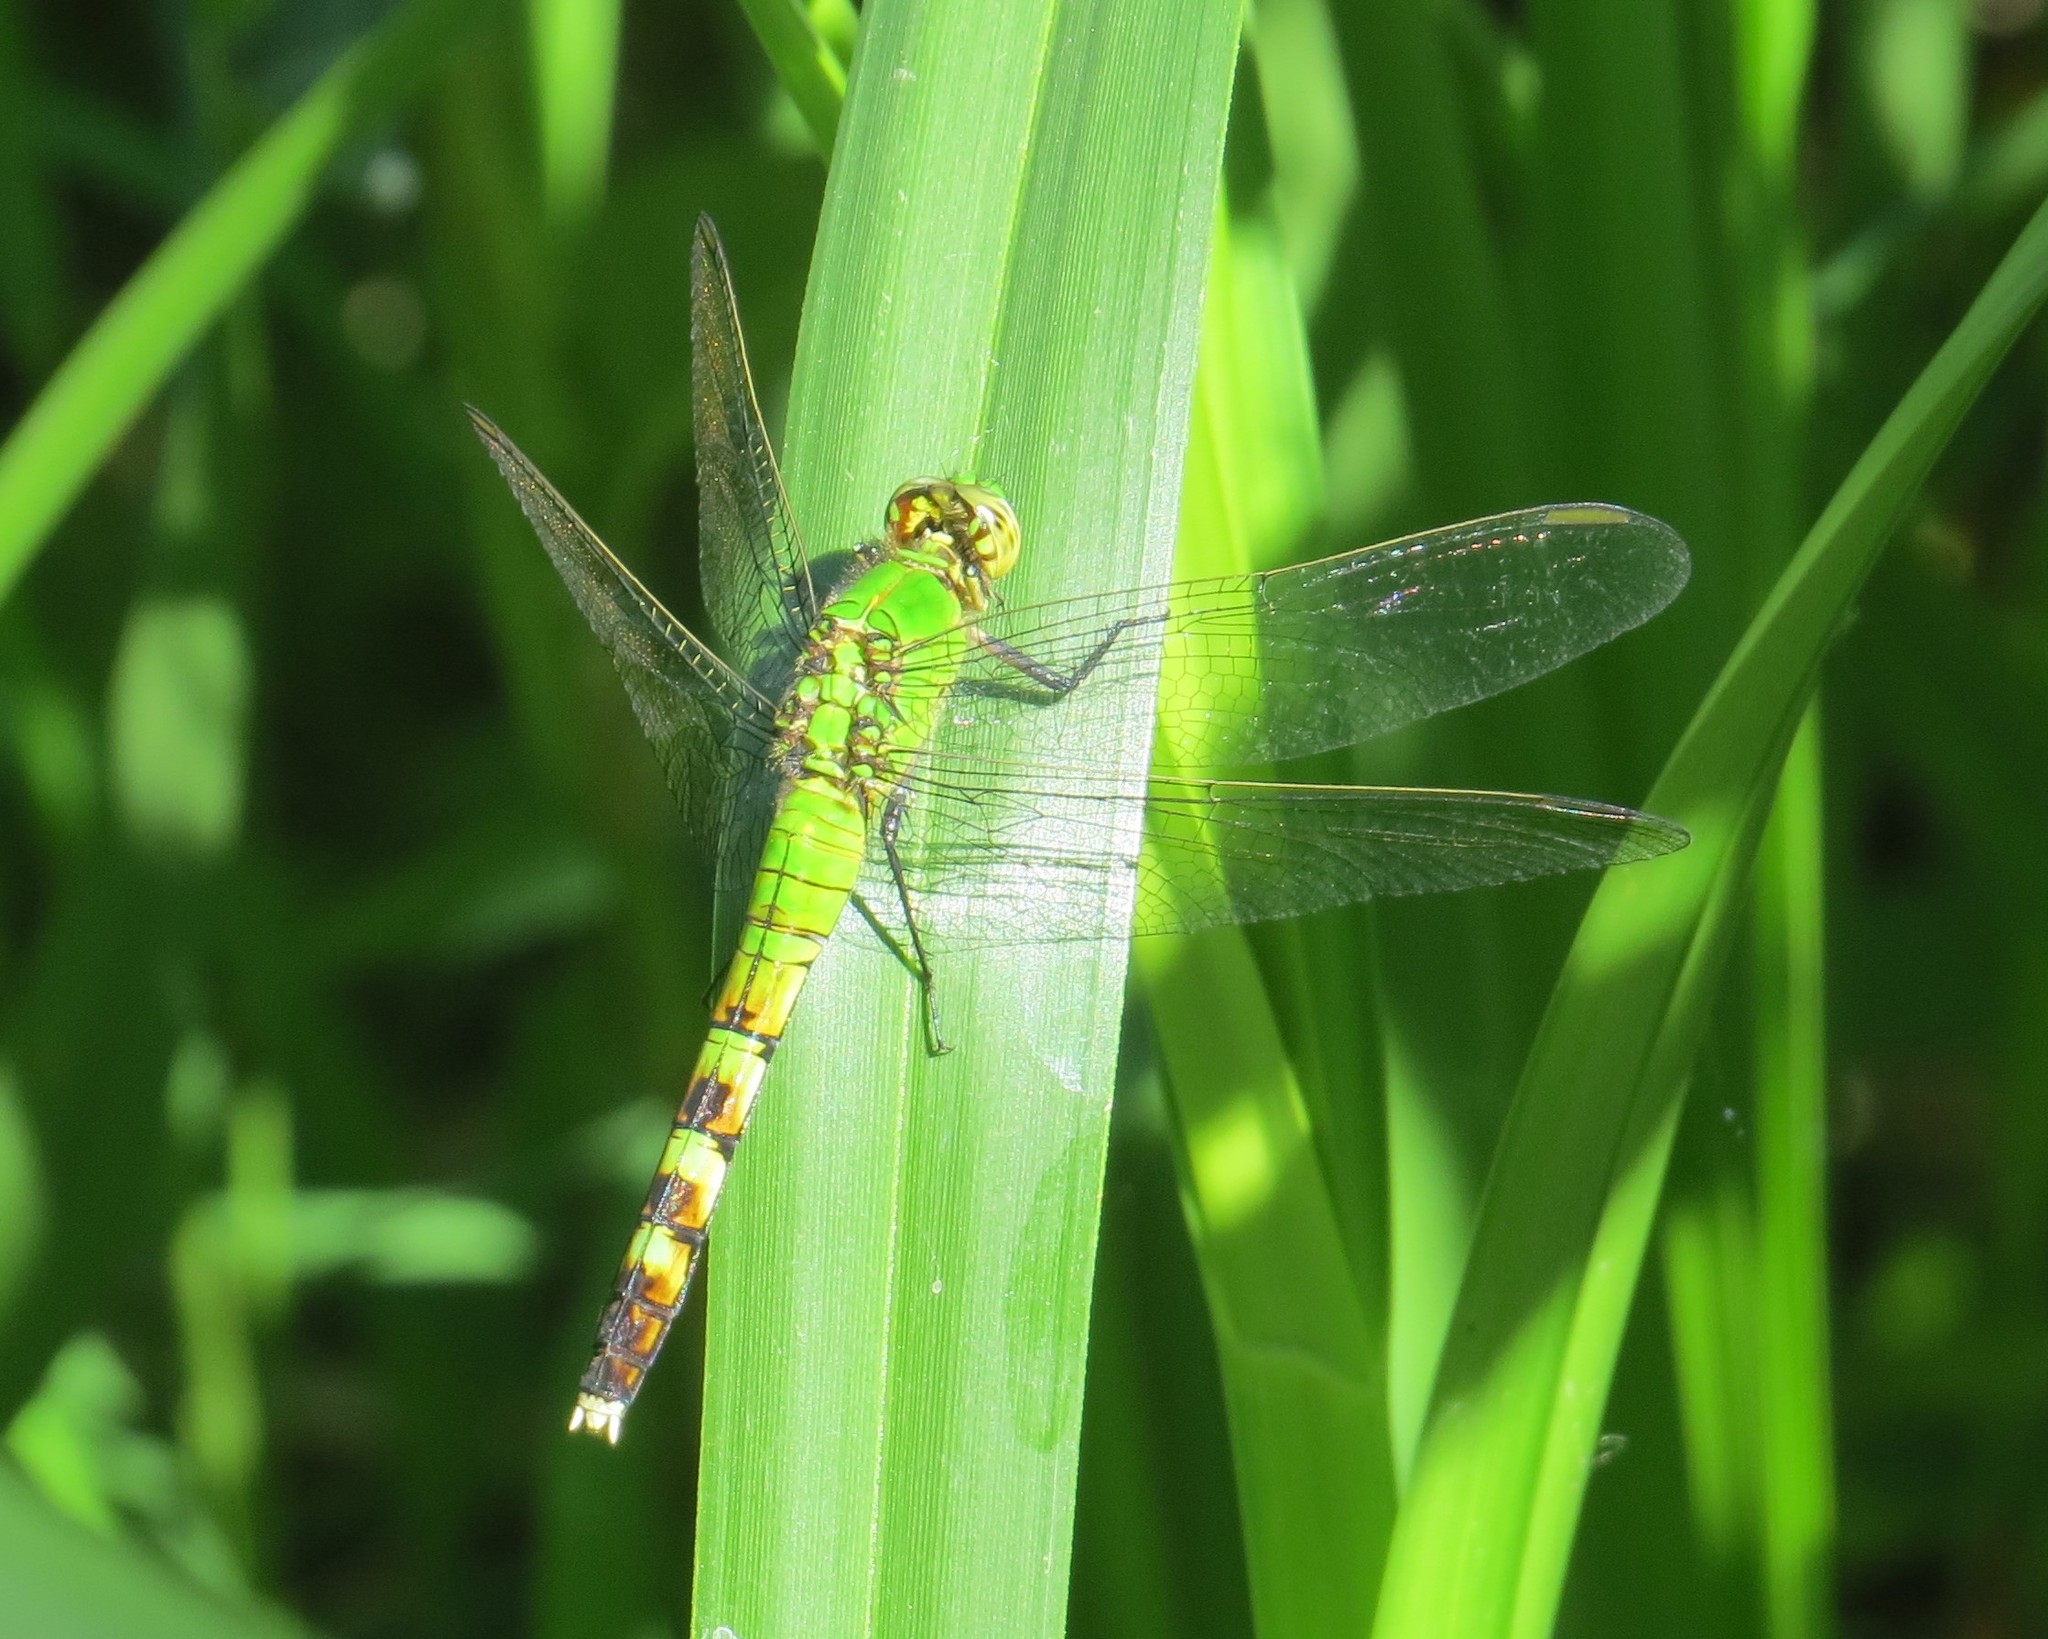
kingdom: Animalia
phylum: Arthropoda
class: Insecta
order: Odonata
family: Libellulidae
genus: Erythemis
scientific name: Erythemis simplicicollis
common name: Eastern pondhawk
